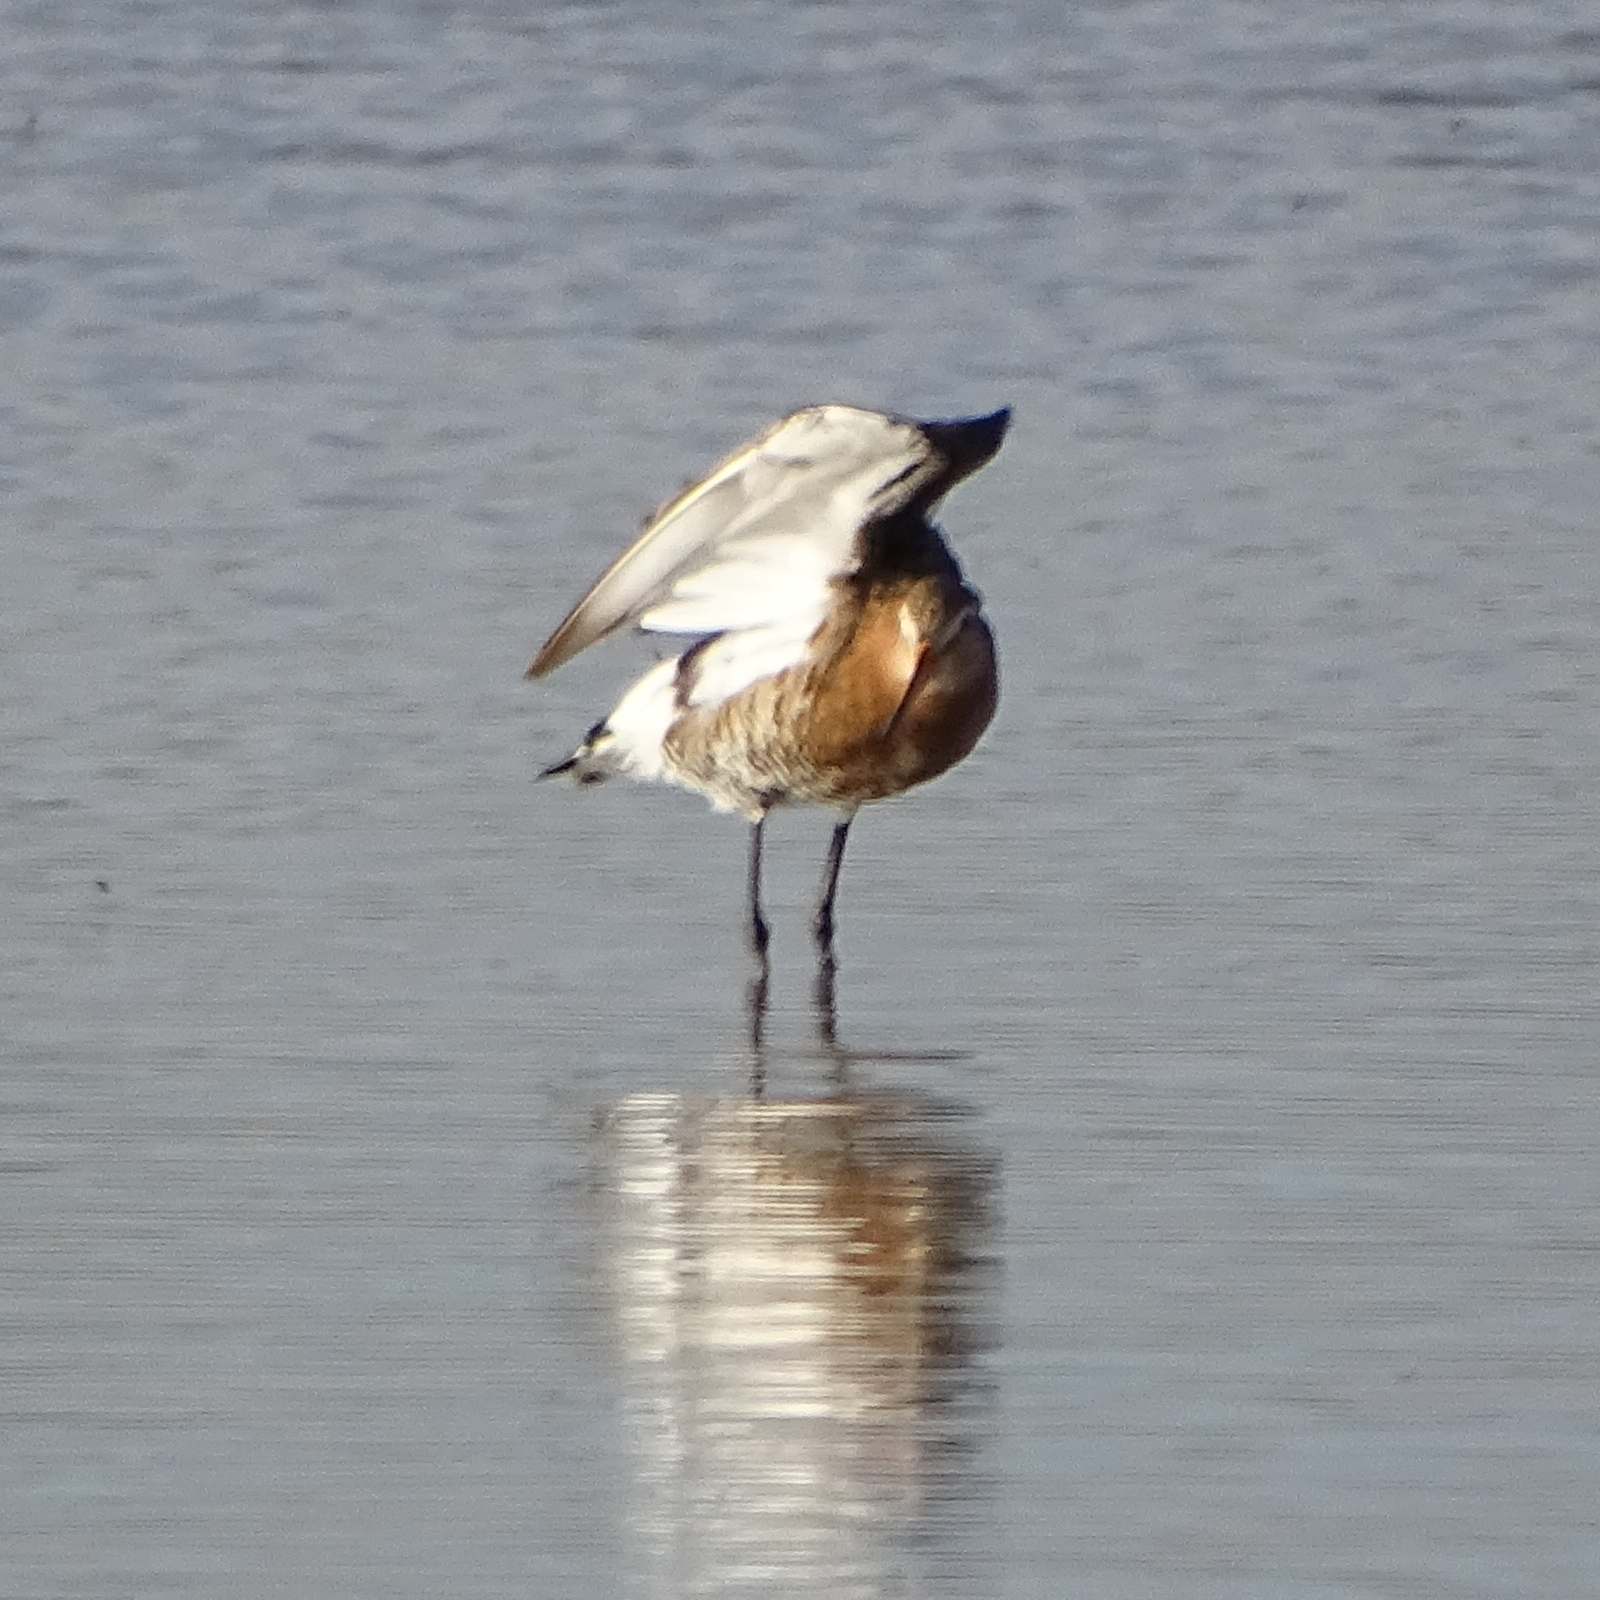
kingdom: Animalia
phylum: Chordata
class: Aves
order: Charadriiformes
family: Scolopacidae
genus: Limosa
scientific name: Limosa limosa
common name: Black-tailed godwit
